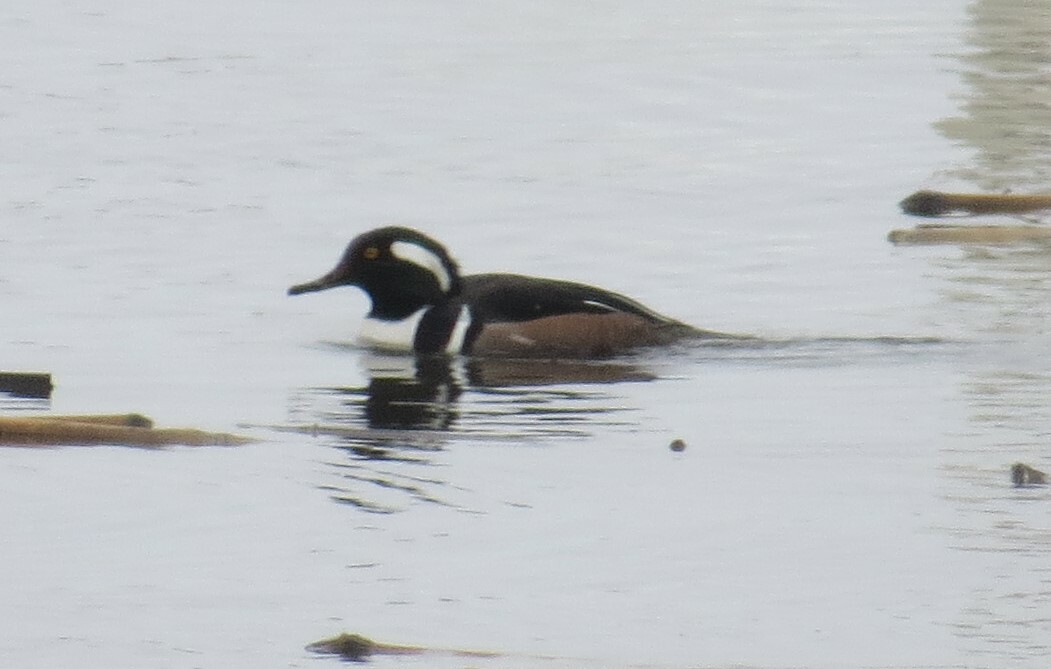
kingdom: Animalia
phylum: Chordata
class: Aves
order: Anseriformes
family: Anatidae
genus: Lophodytes
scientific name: Lophodytes cucullatus
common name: Hooded merganser
